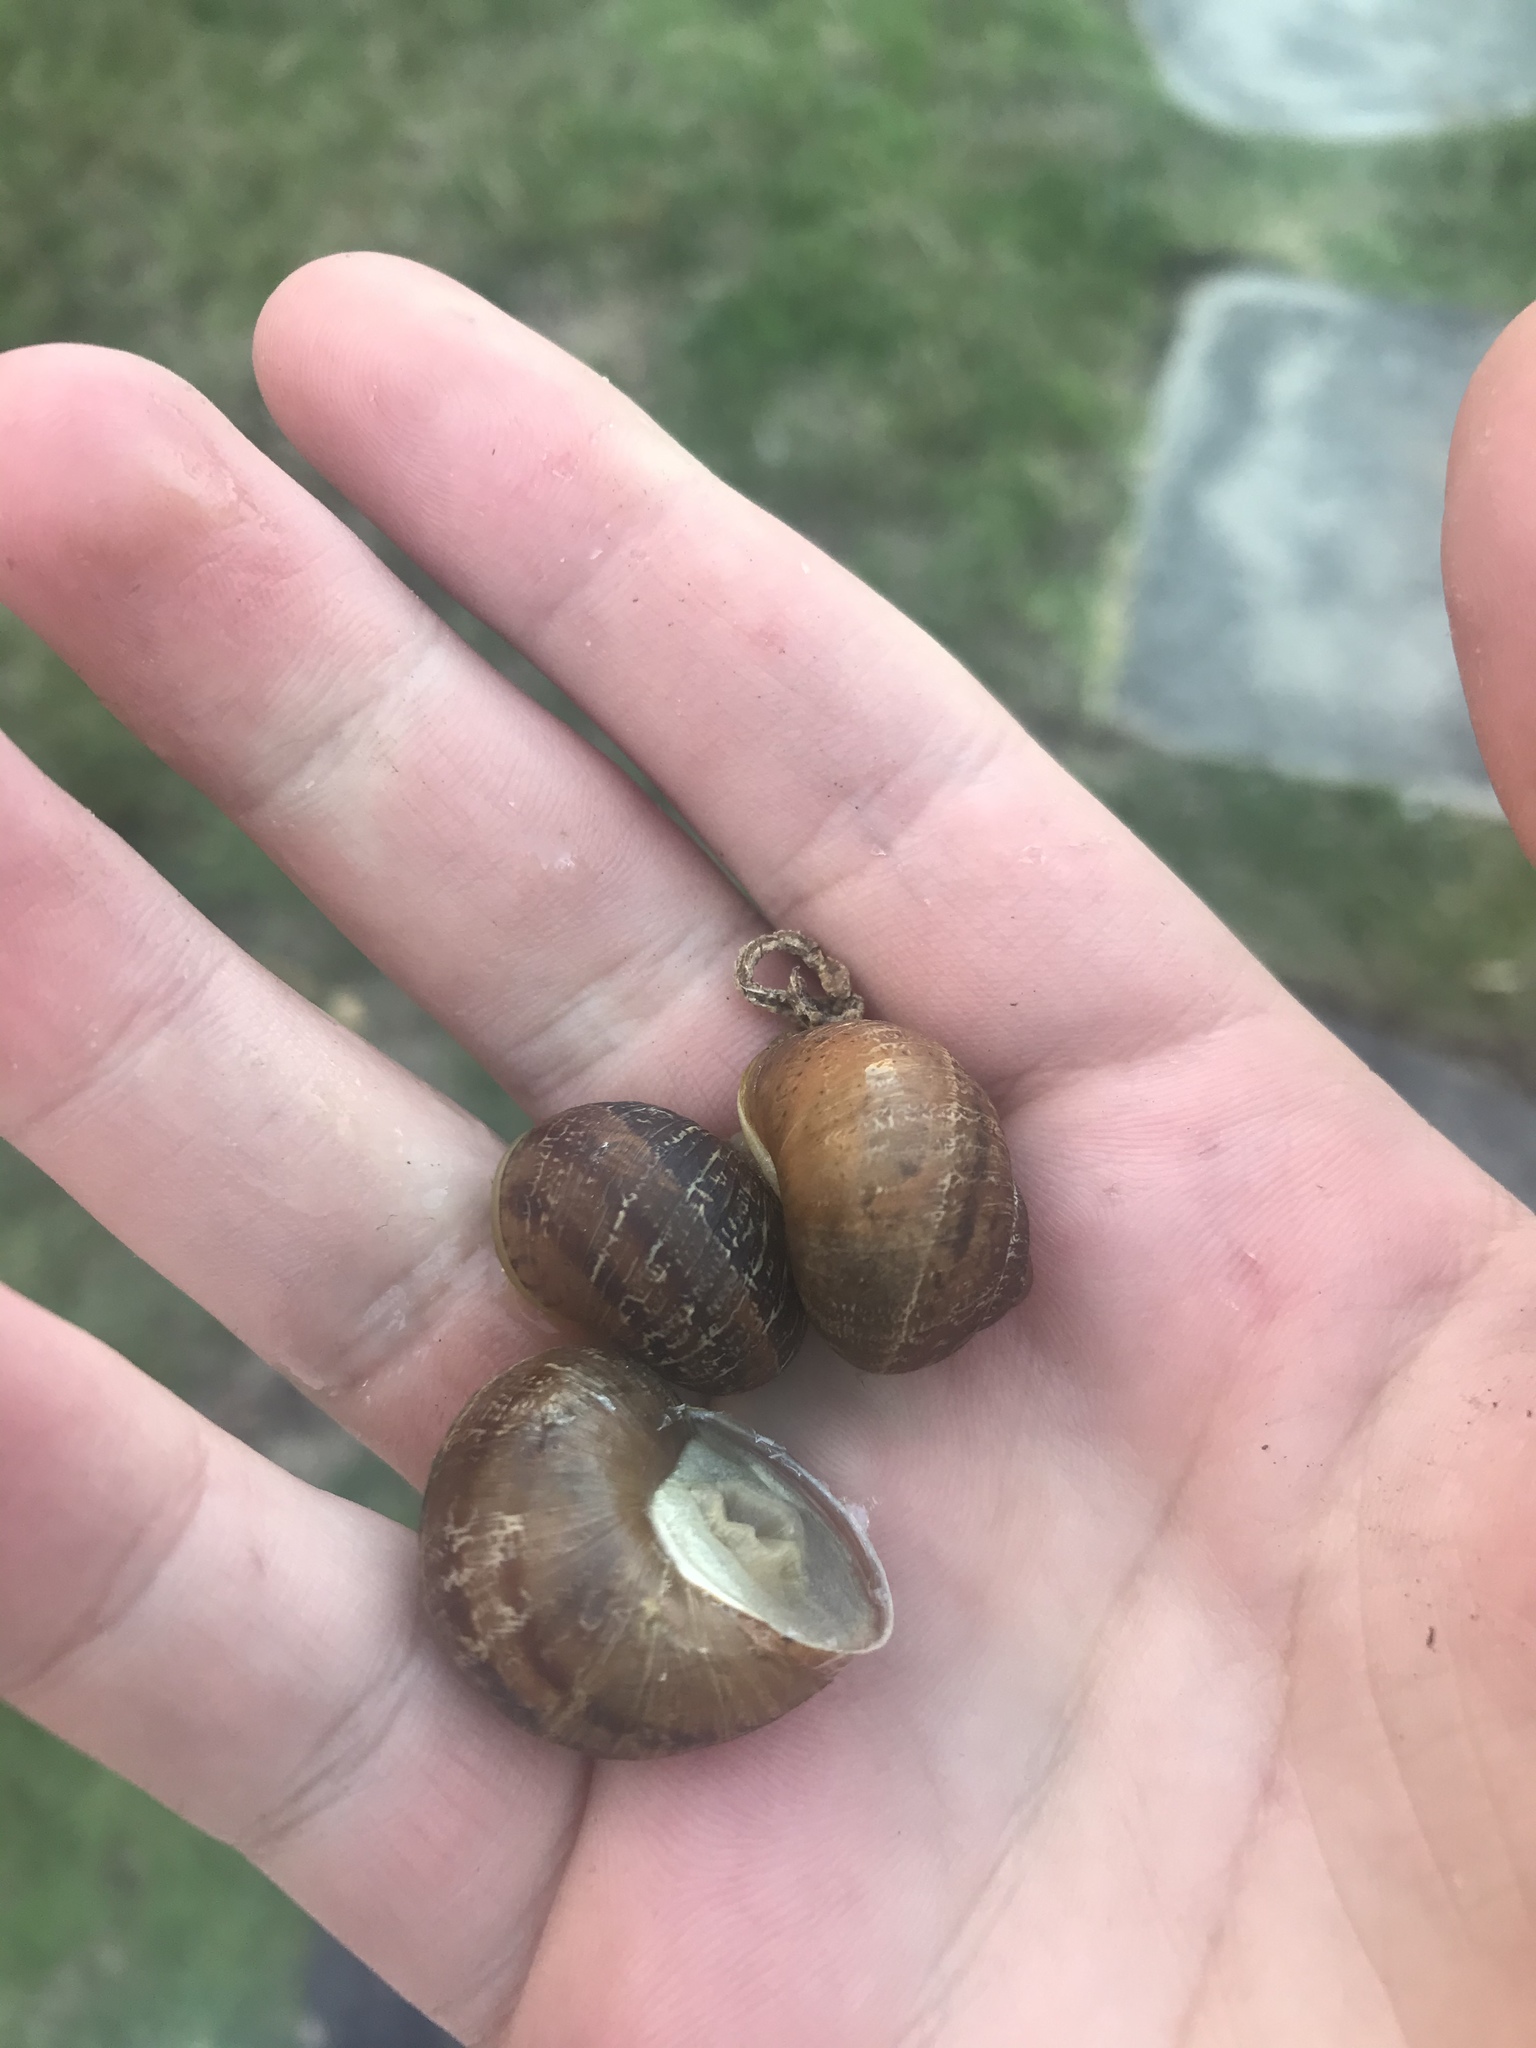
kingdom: Animalia
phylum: Mollusca
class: Gastropoda
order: Stylommatophora
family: Helicidae
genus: Cornu
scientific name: Cornu aspersum
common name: Brown garden snail
